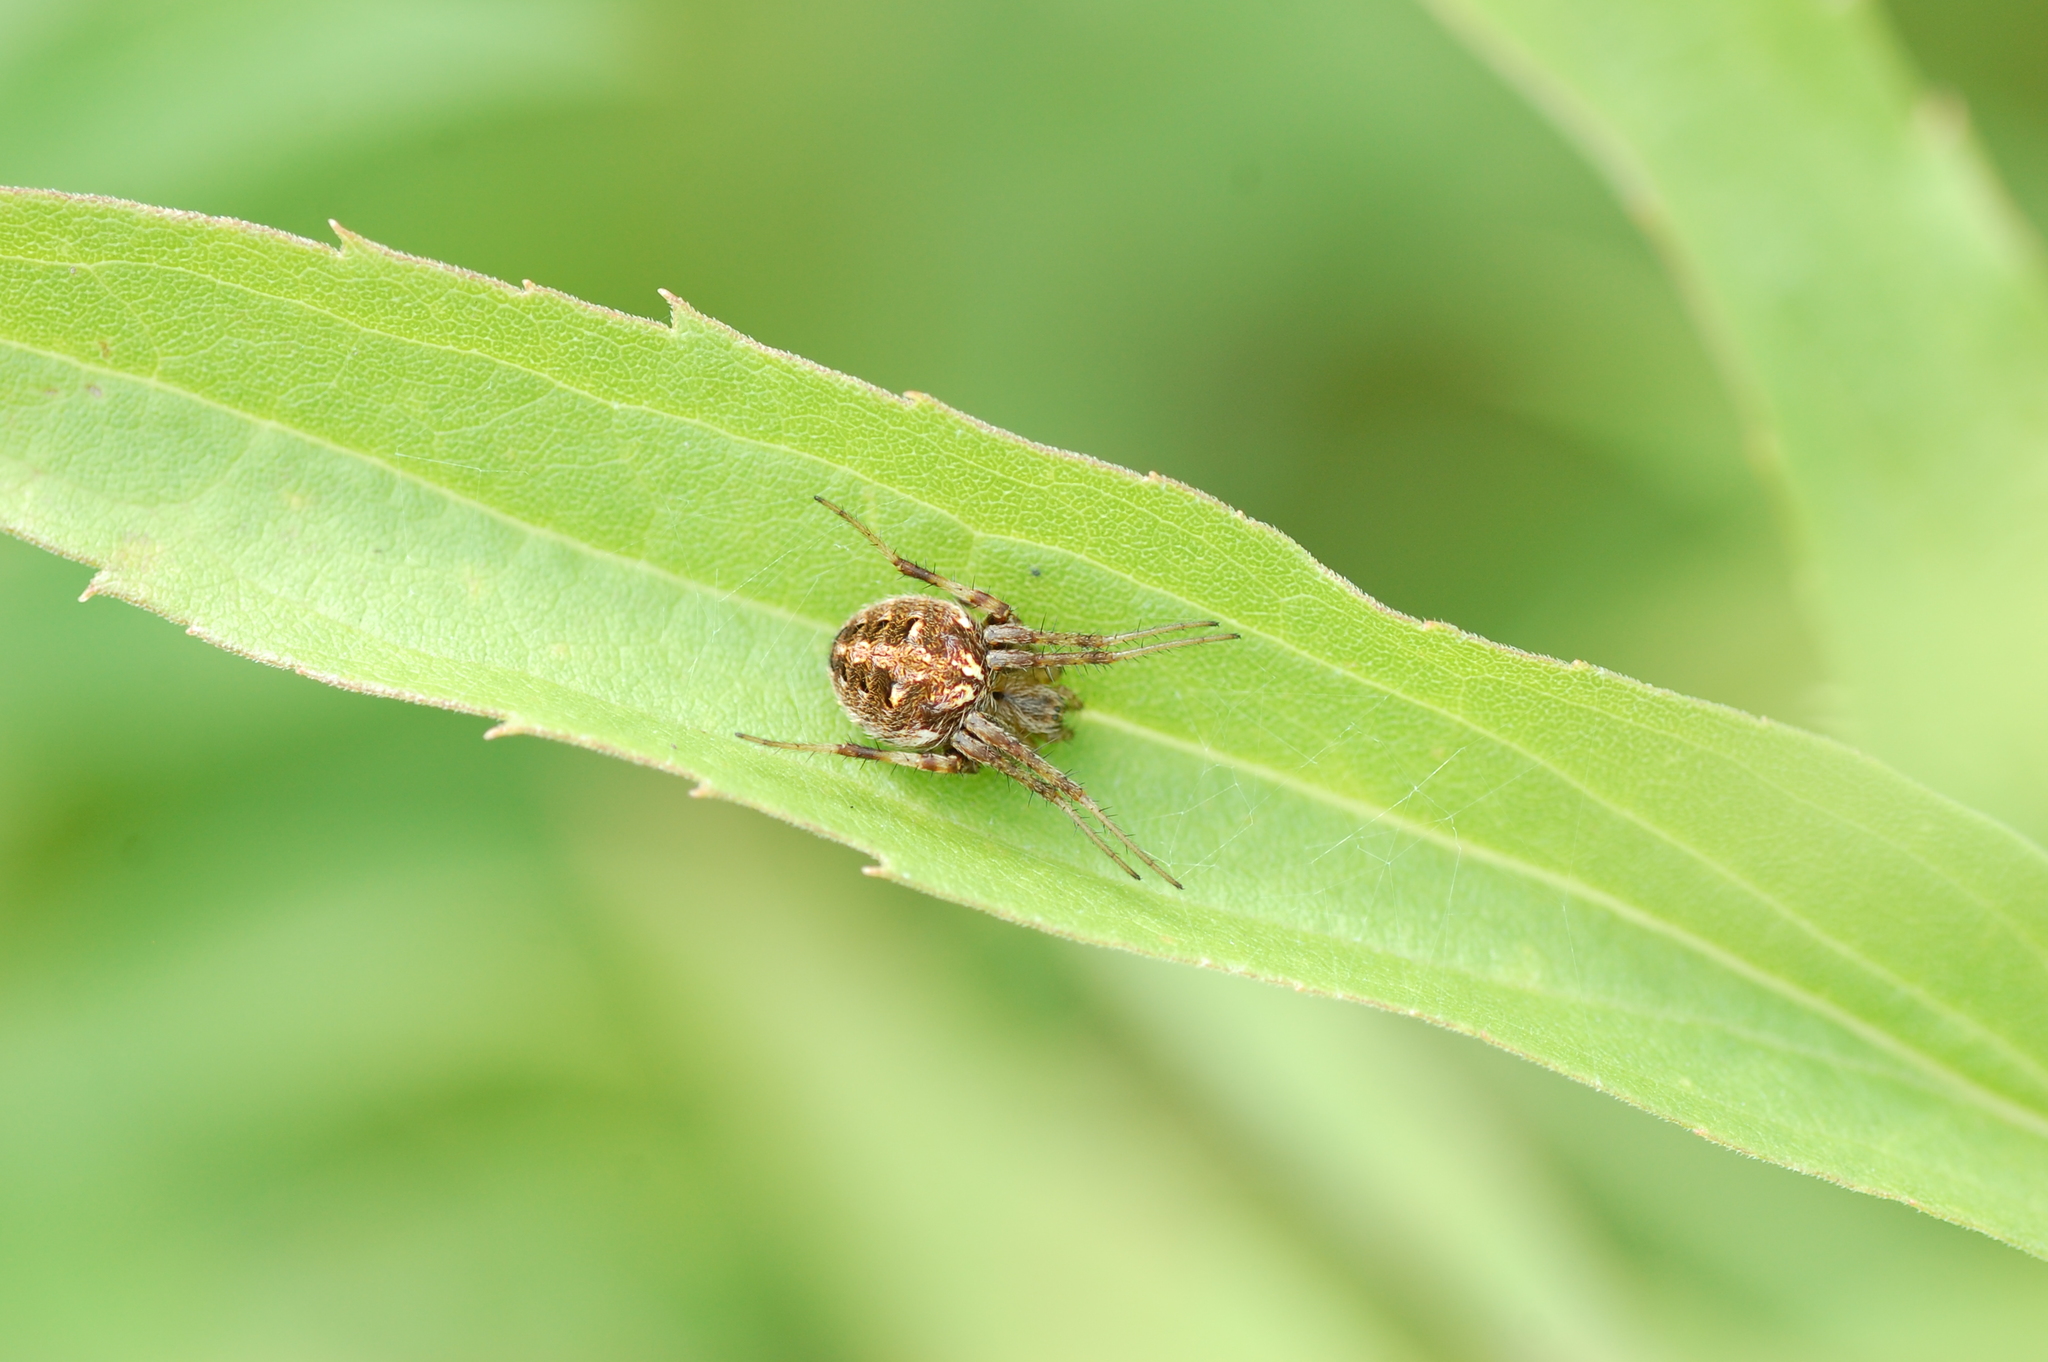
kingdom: Animalia
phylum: Arthropoda
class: Arachnida
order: Araneae
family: Araneidae
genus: Neoscona
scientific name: Neoscona arabesca
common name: Orb weavers
